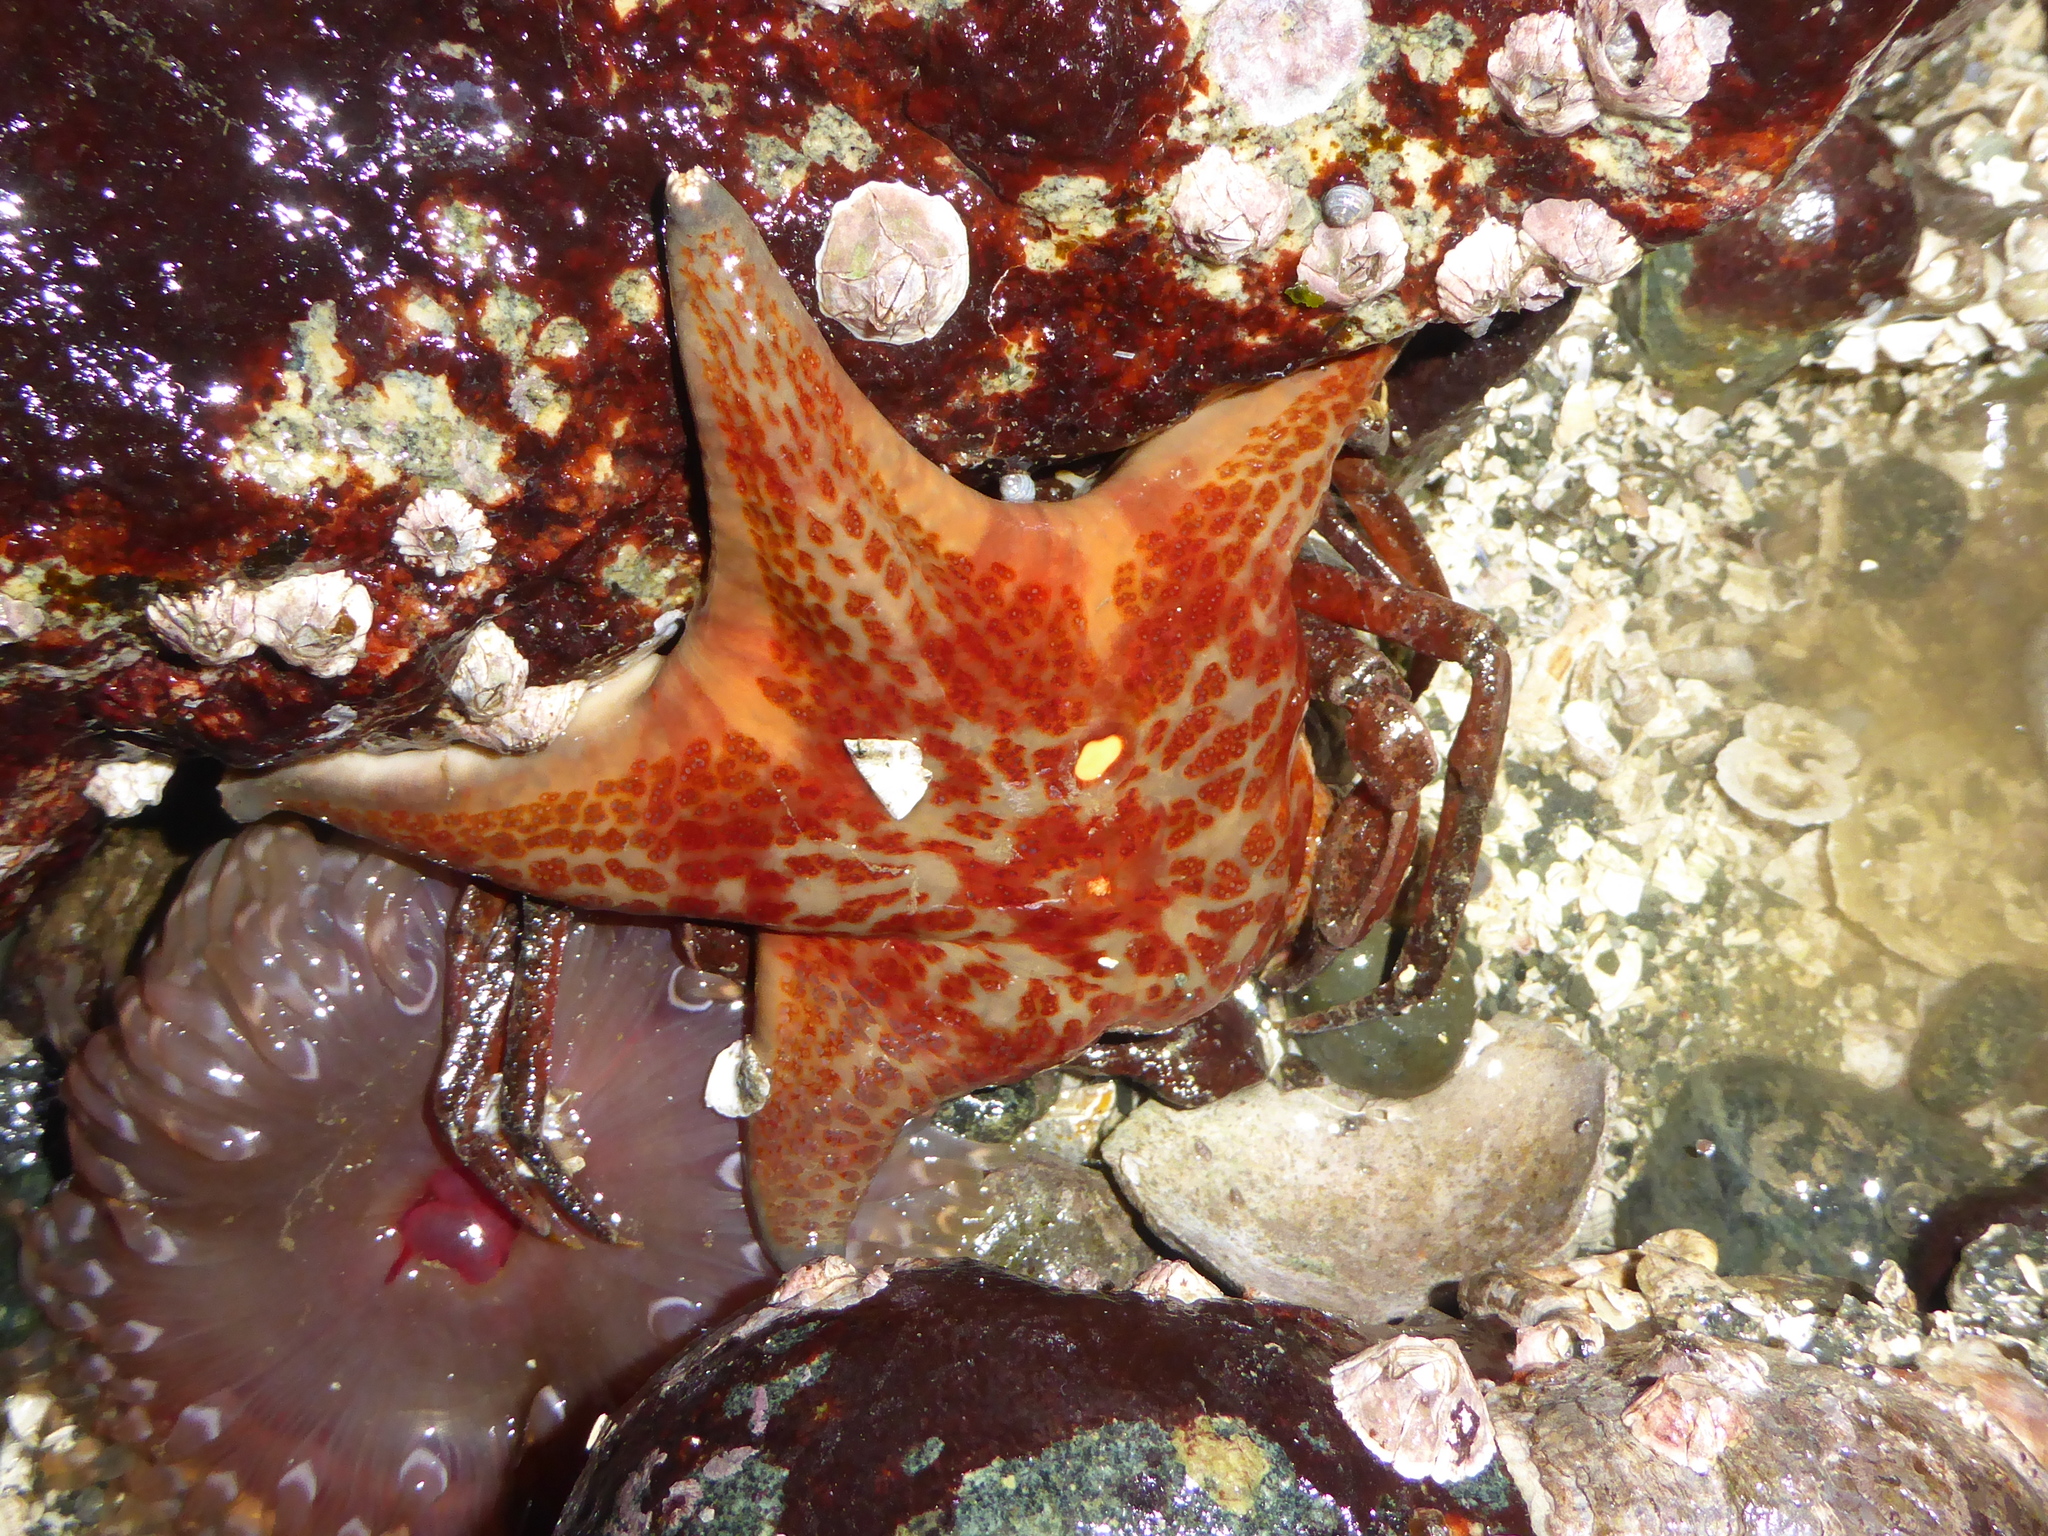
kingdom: Animalia
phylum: Echinodermata
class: Asteroidea
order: Valvatida
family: Asteropseidae
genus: Dermasterias
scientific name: Dermasterias imbricata
